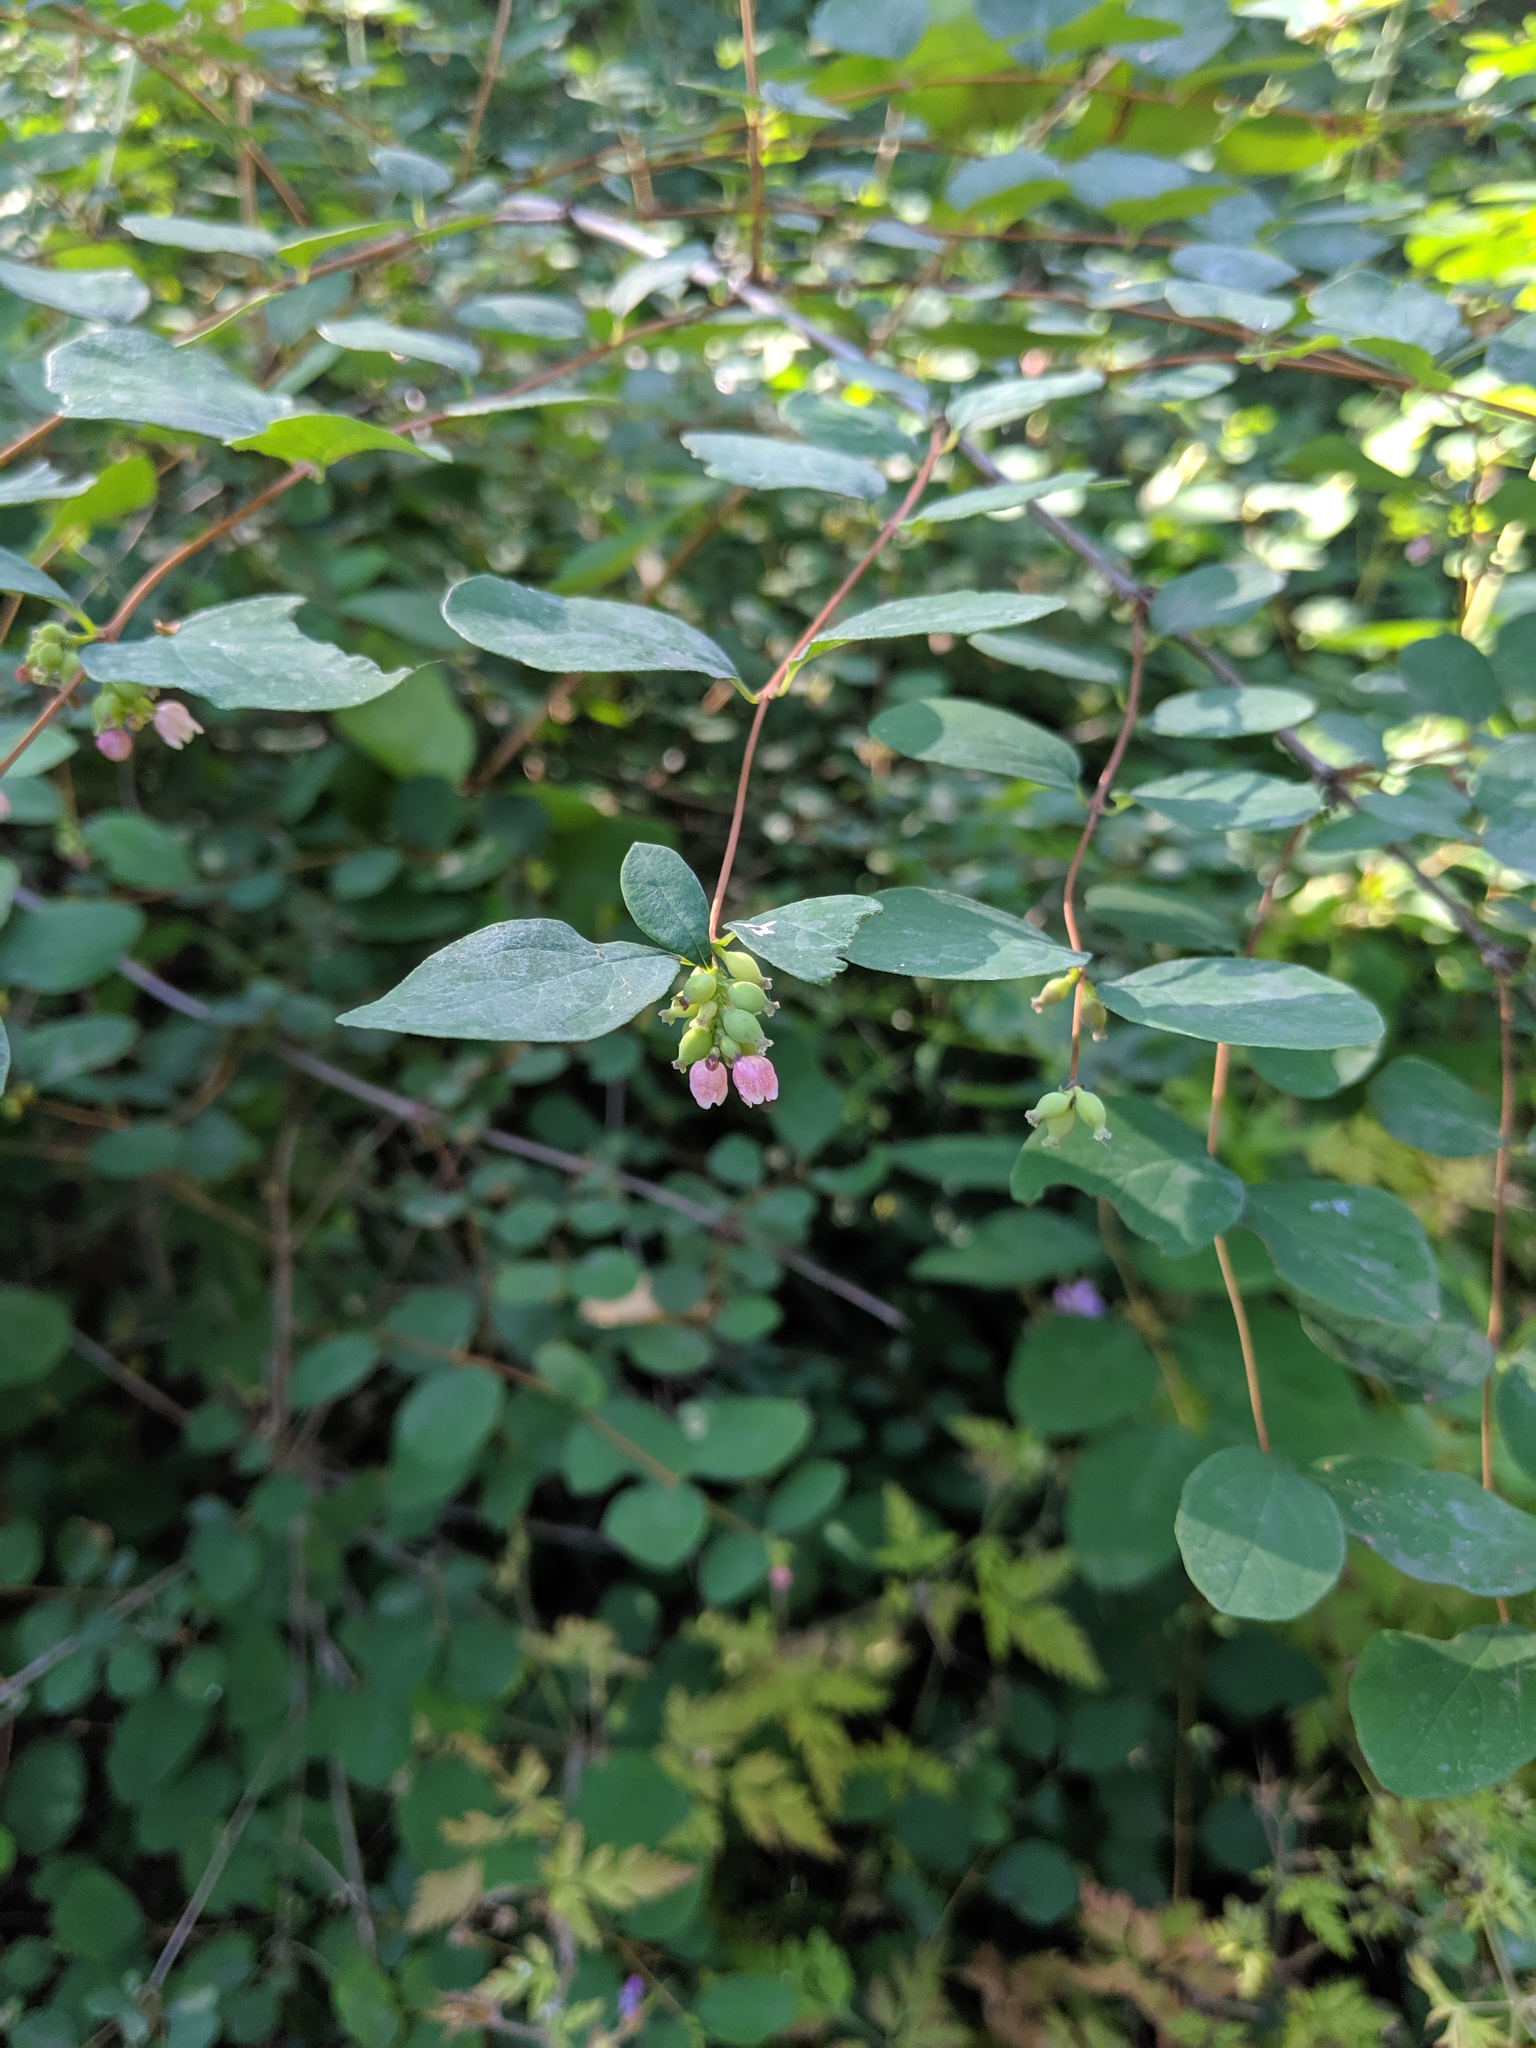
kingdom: Plantae
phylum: Tracheophyta
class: Magnoliopsida
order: Dipsacales
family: Caprifoliaceae
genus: Symphoricarpos
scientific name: Symphoricarpos albus
